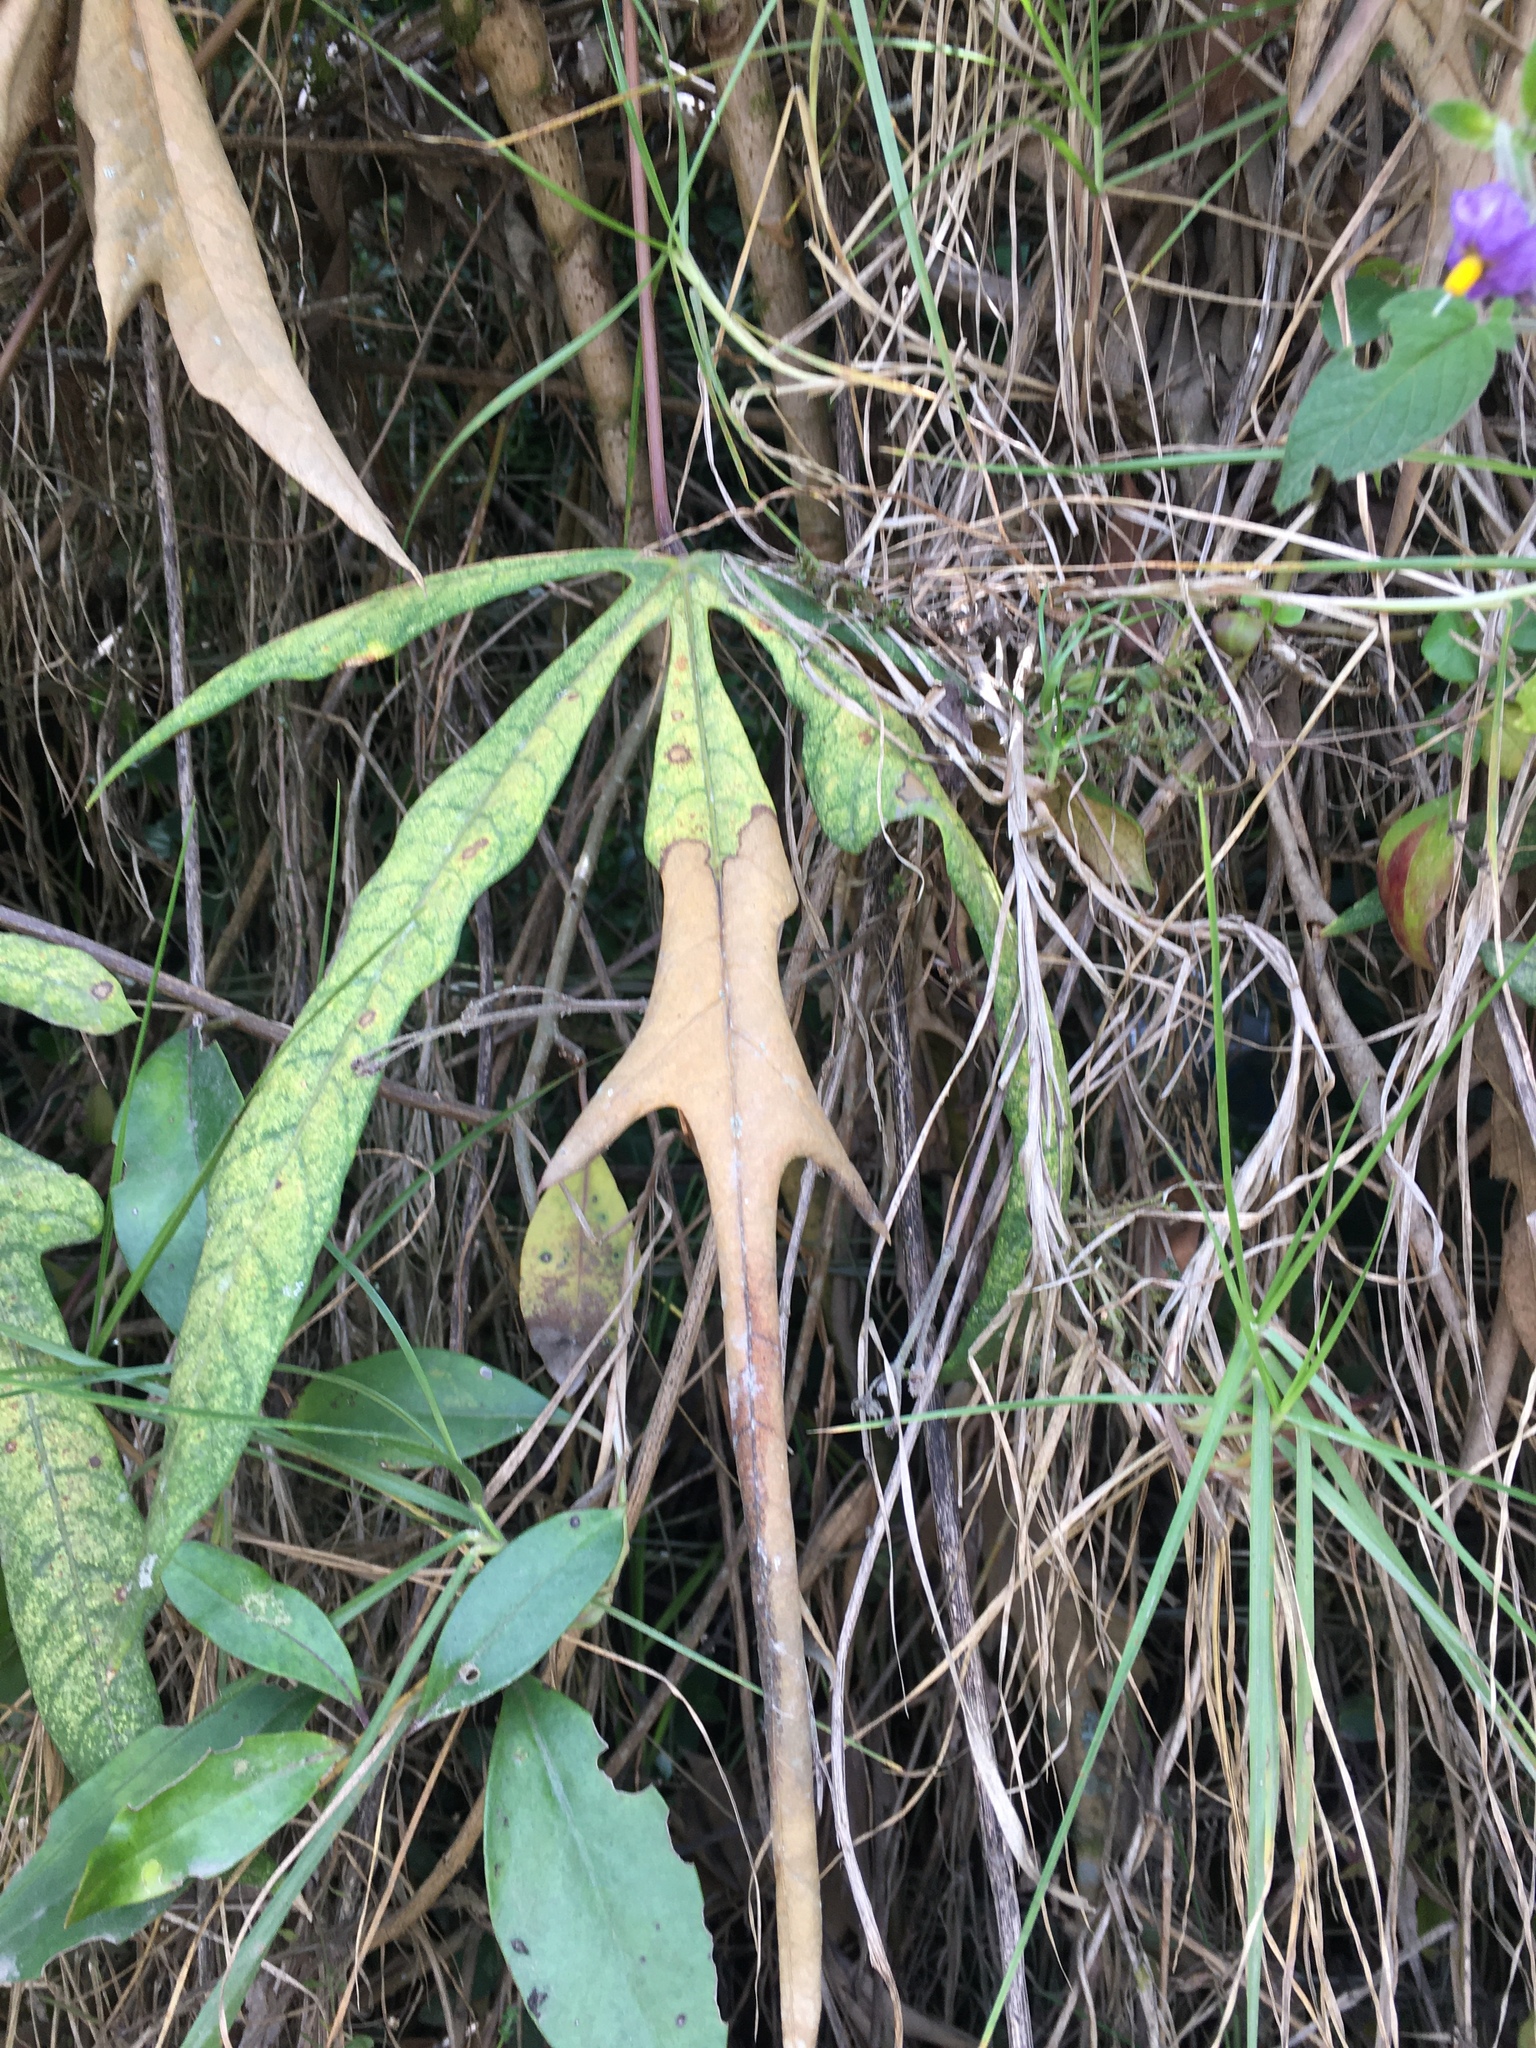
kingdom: Plantae
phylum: Tracheophyta
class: Magnoliopsida
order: Apiales
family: Araliaceae
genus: Oreopanax
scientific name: Oreopanax incisus
